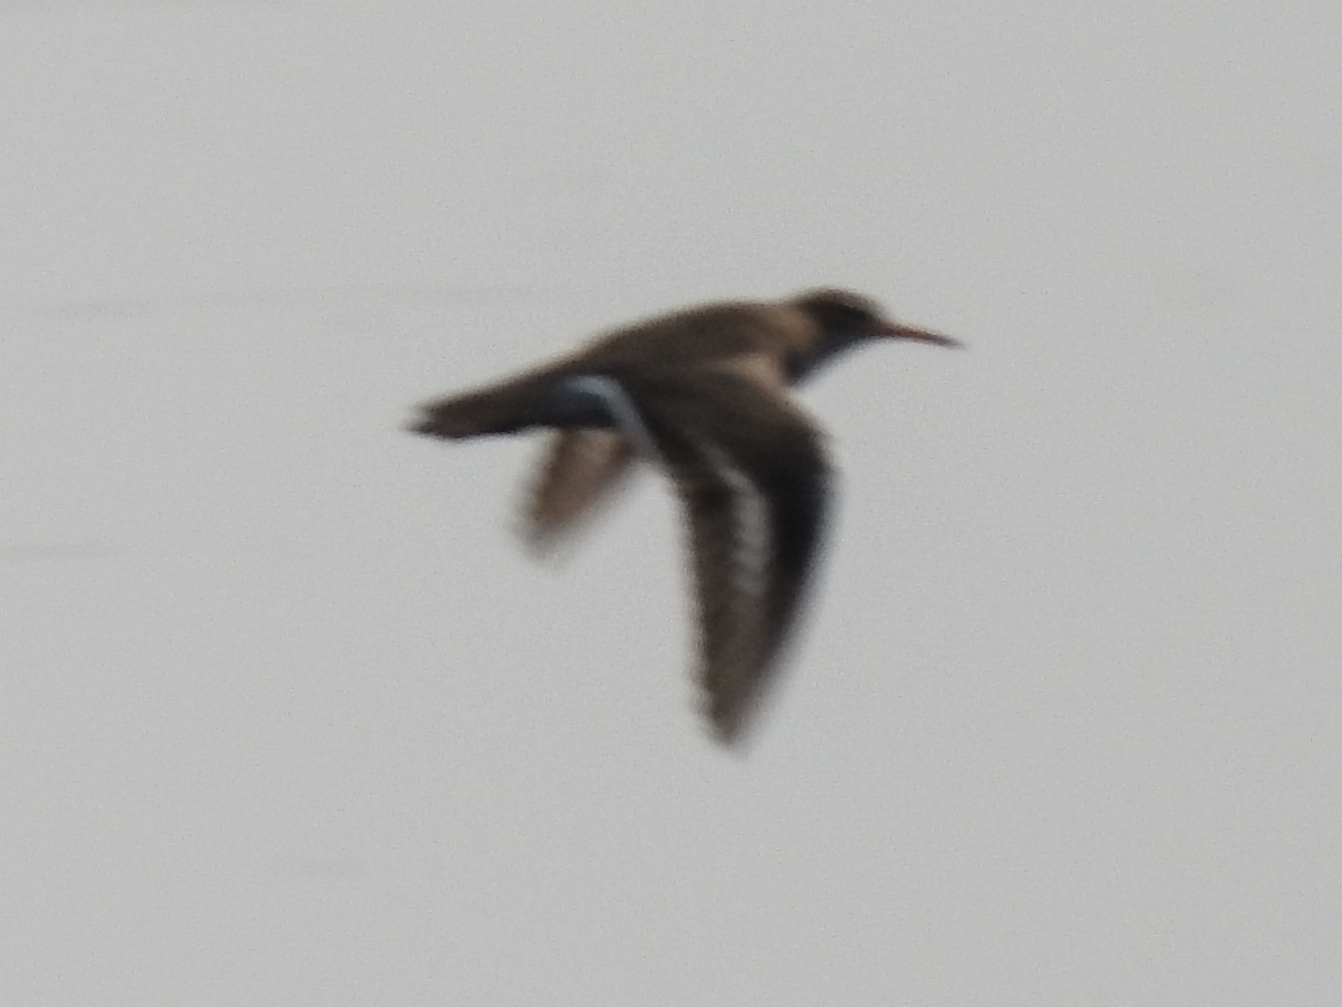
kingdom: Animalia
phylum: Chordata
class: Aves
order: Charadriiformes
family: Scolopacidae
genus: Actitis
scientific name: Actitis macularius
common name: Spotted sandpiper
